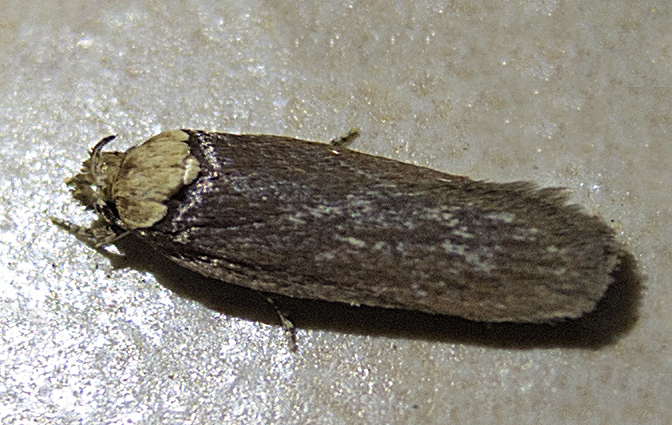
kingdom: Animalia
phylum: Arthropoda
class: Insecta
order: Lepidoptera
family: Depressariidae
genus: Depressaria
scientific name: Depressaria depressana
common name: Lost flat-body
